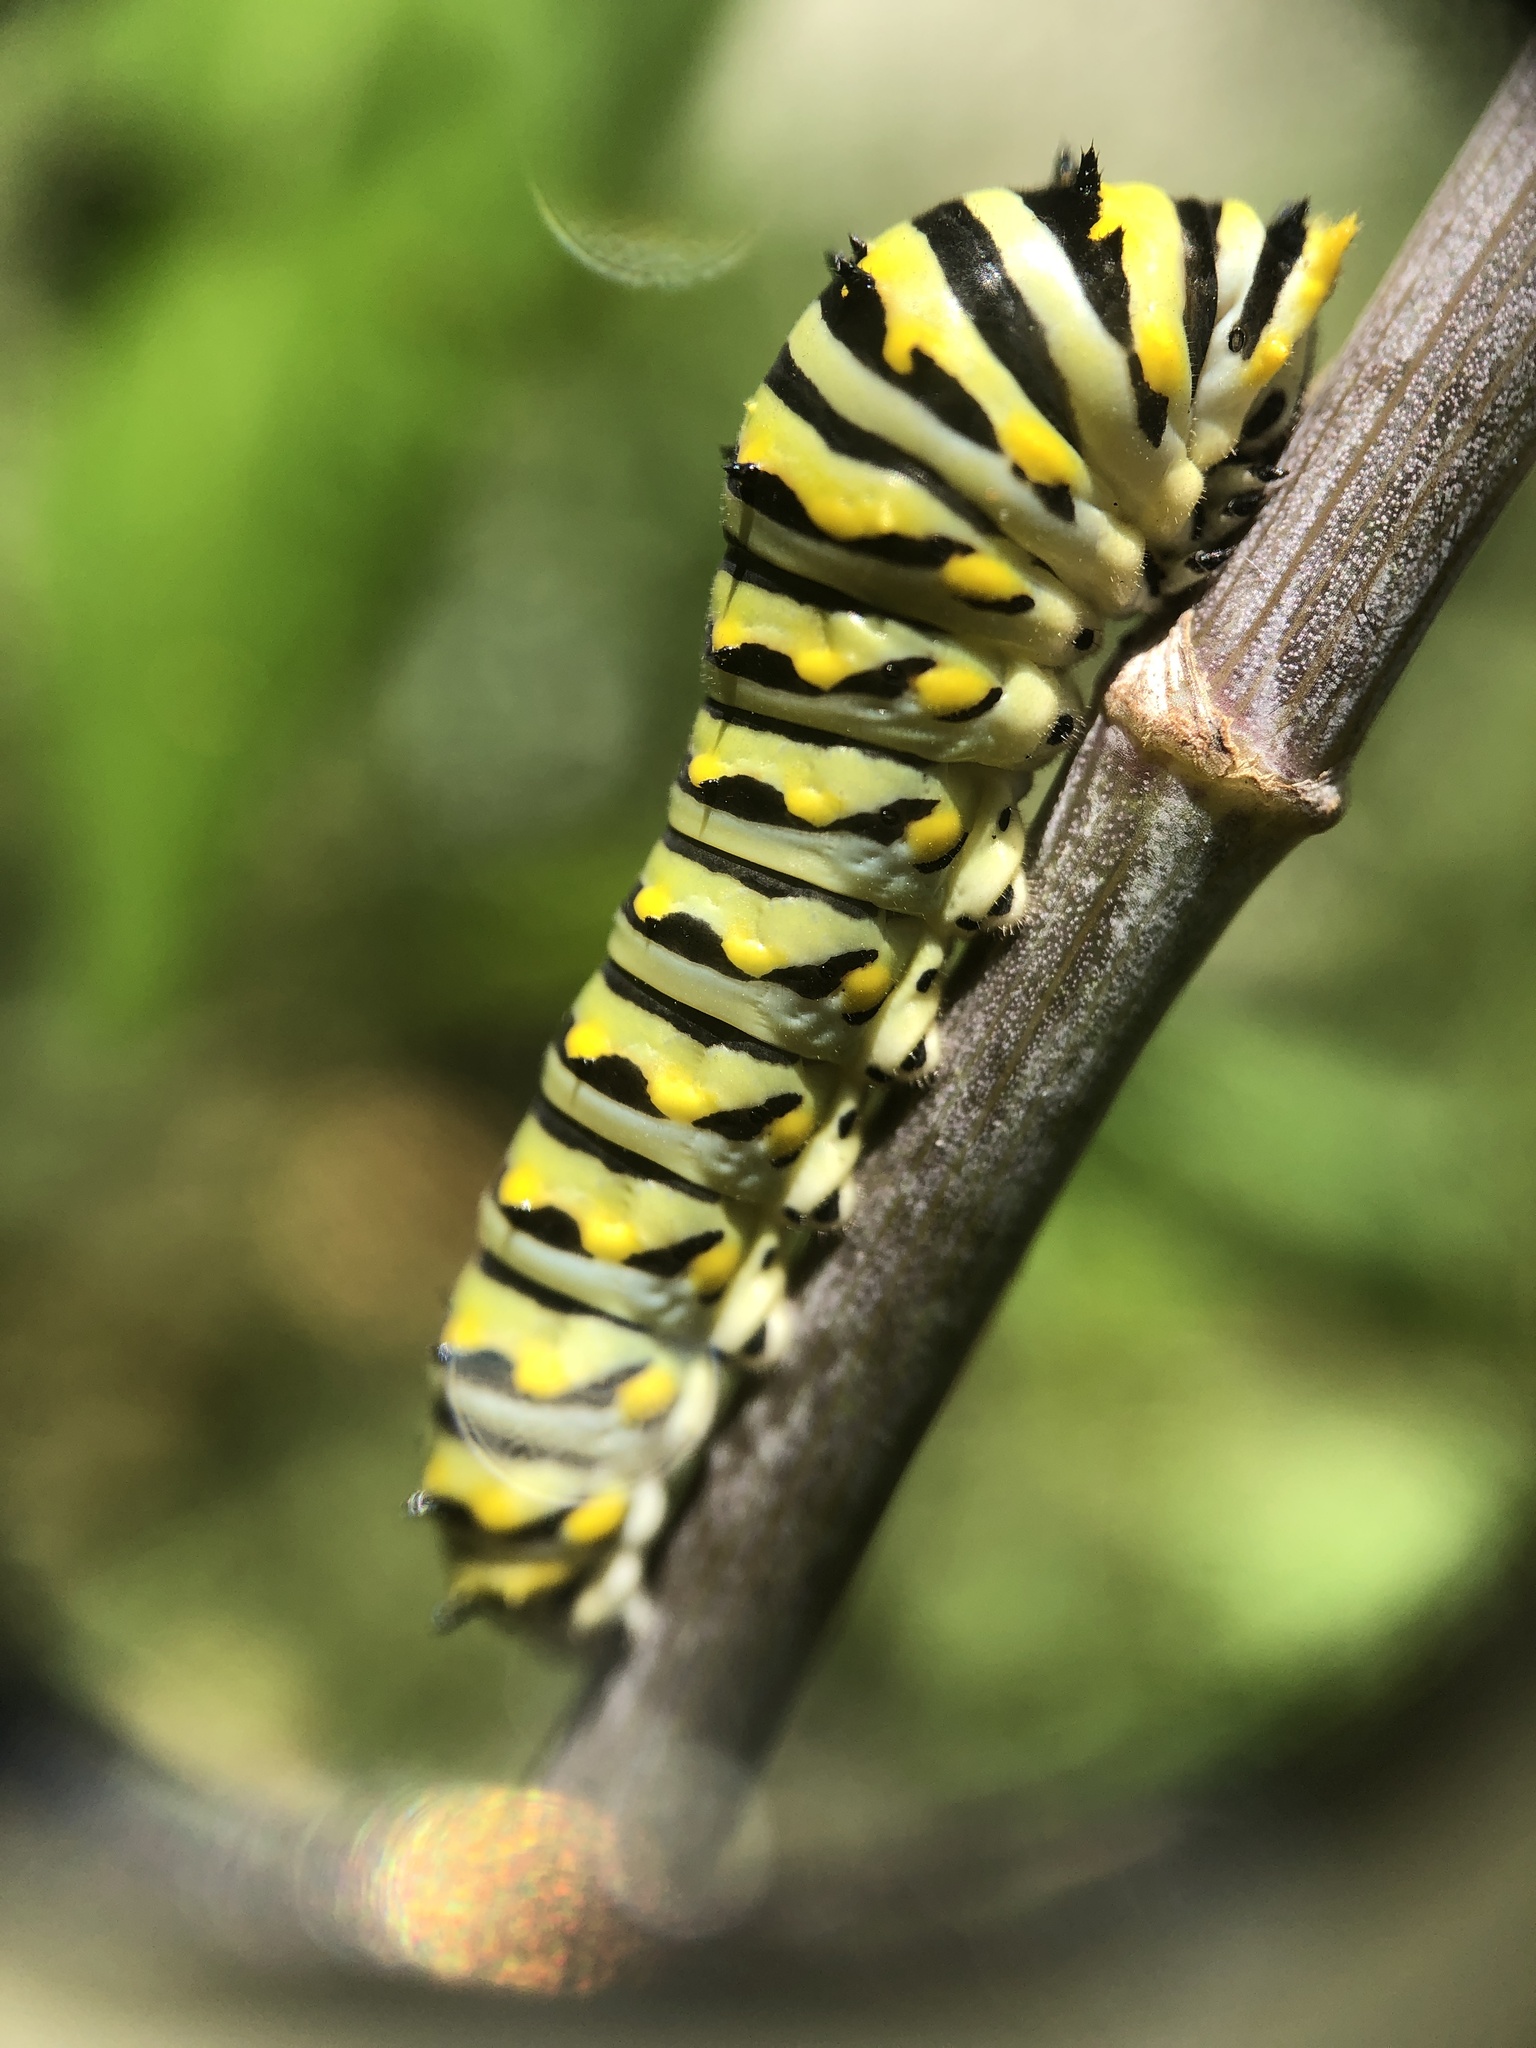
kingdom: Animalia
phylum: Arthropoda
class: Insecta
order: Lepidoptera
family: Papilionidae
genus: Papilio
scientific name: Papilio polyxenes
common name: Black swallowtail
